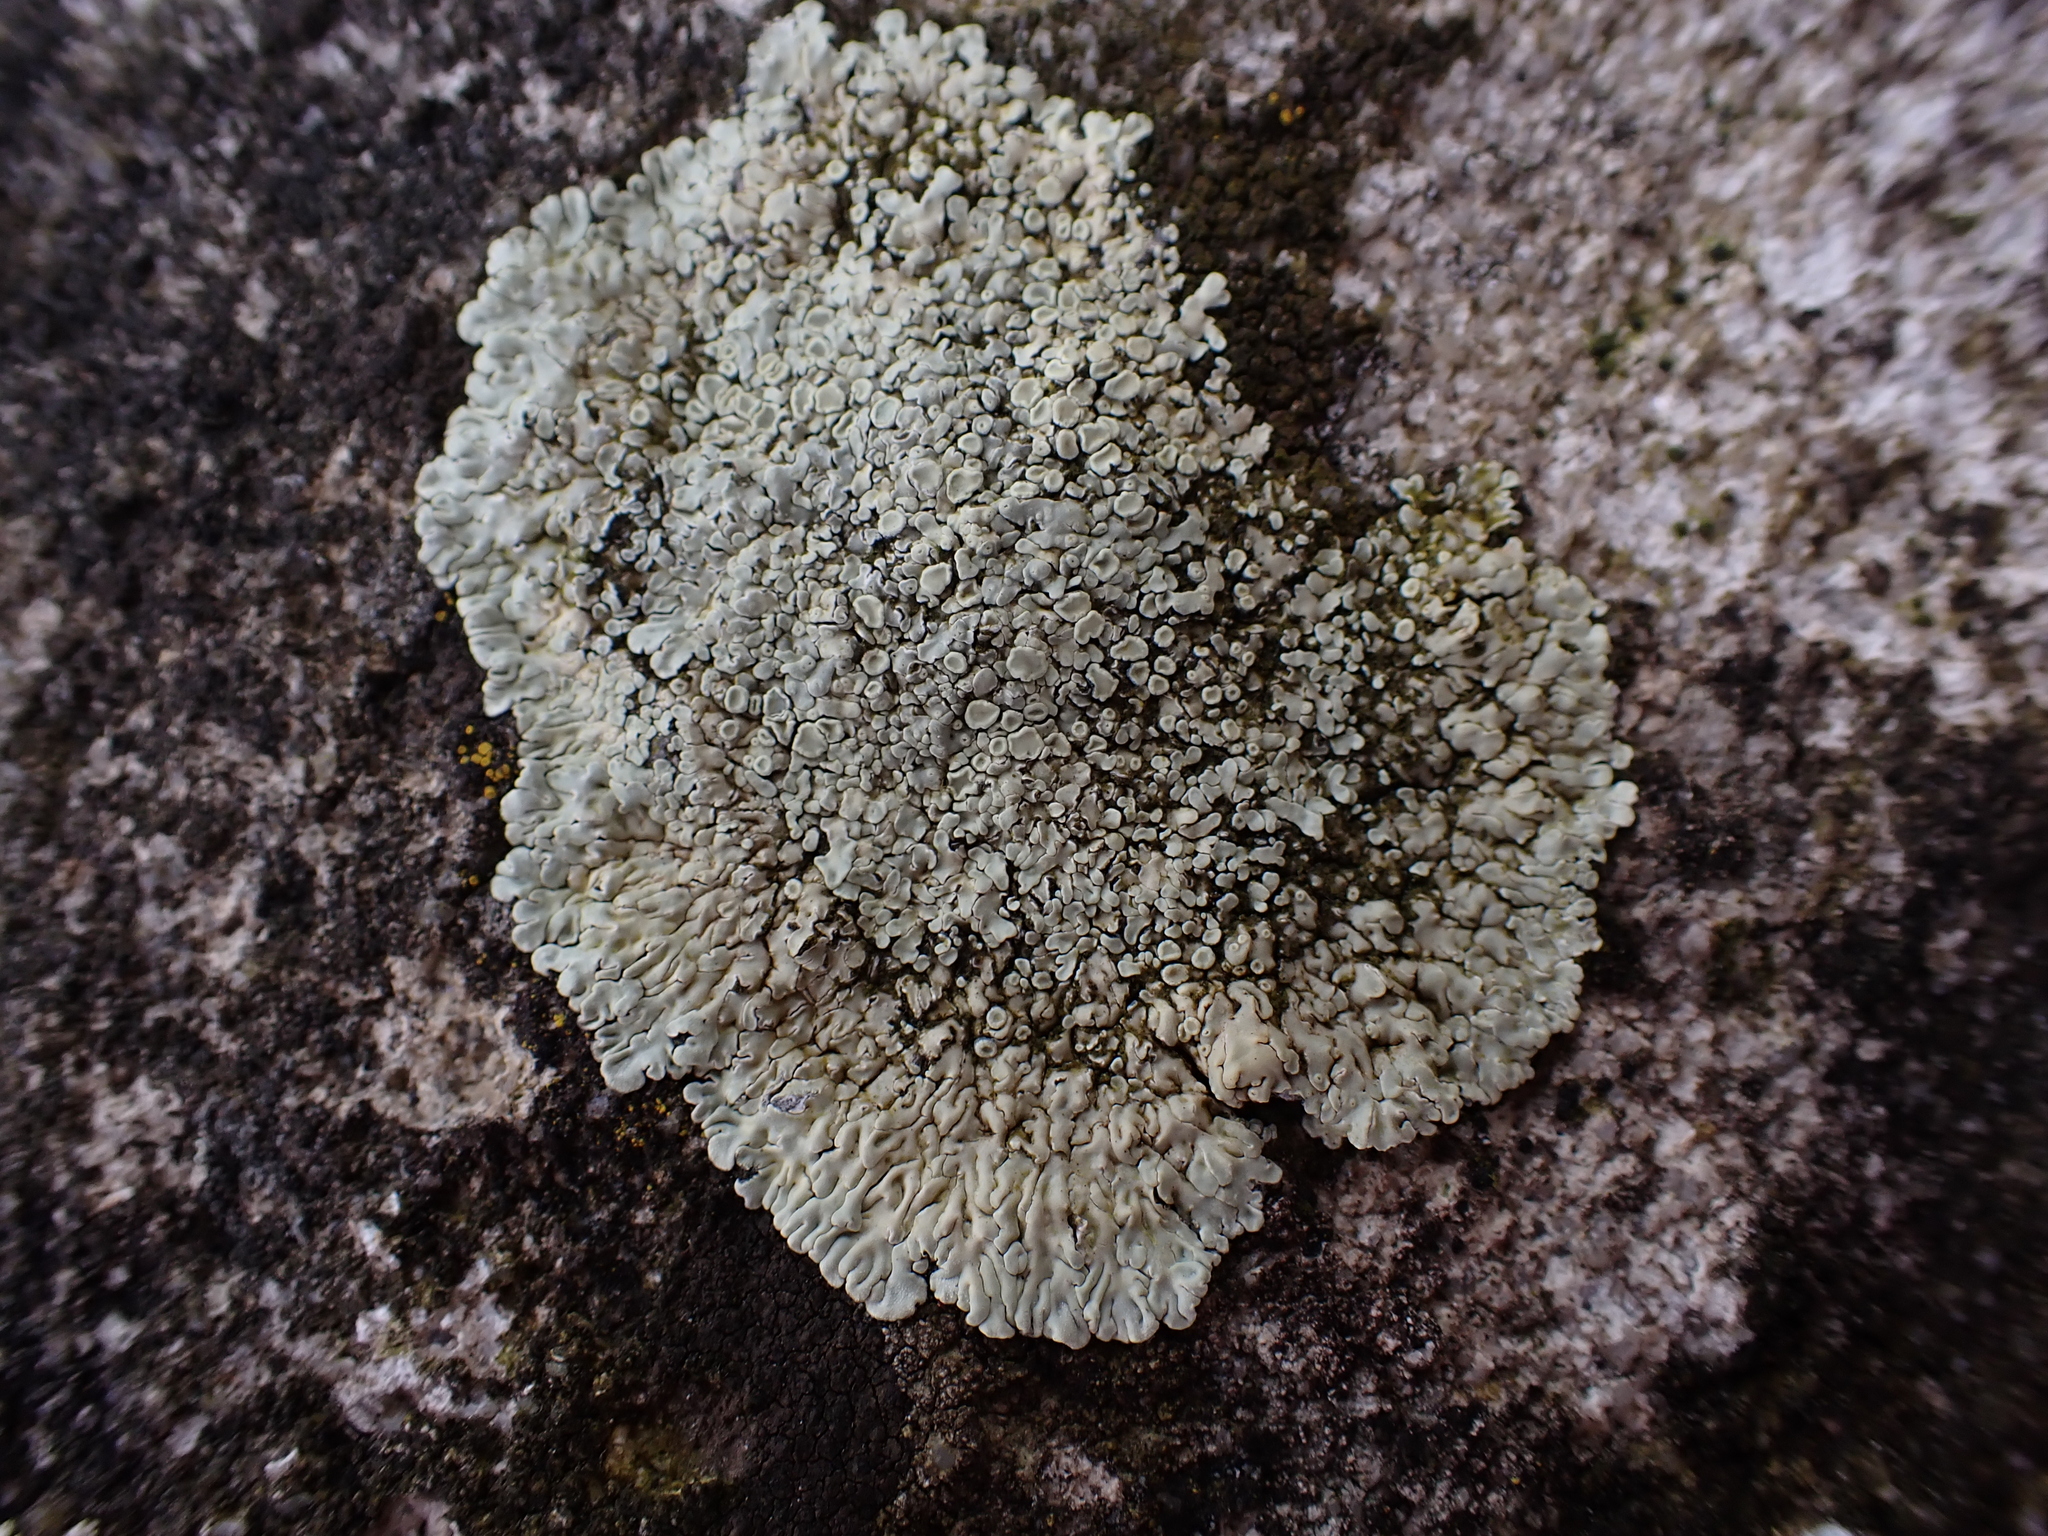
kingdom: Fungi
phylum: Ascomycota
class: Lecanoromycetes
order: Lecanorales
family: Lecanoraceae
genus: Protoparmeliopsis
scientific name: Protoparmeliopsis muralis
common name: Stonewall rim lichen
